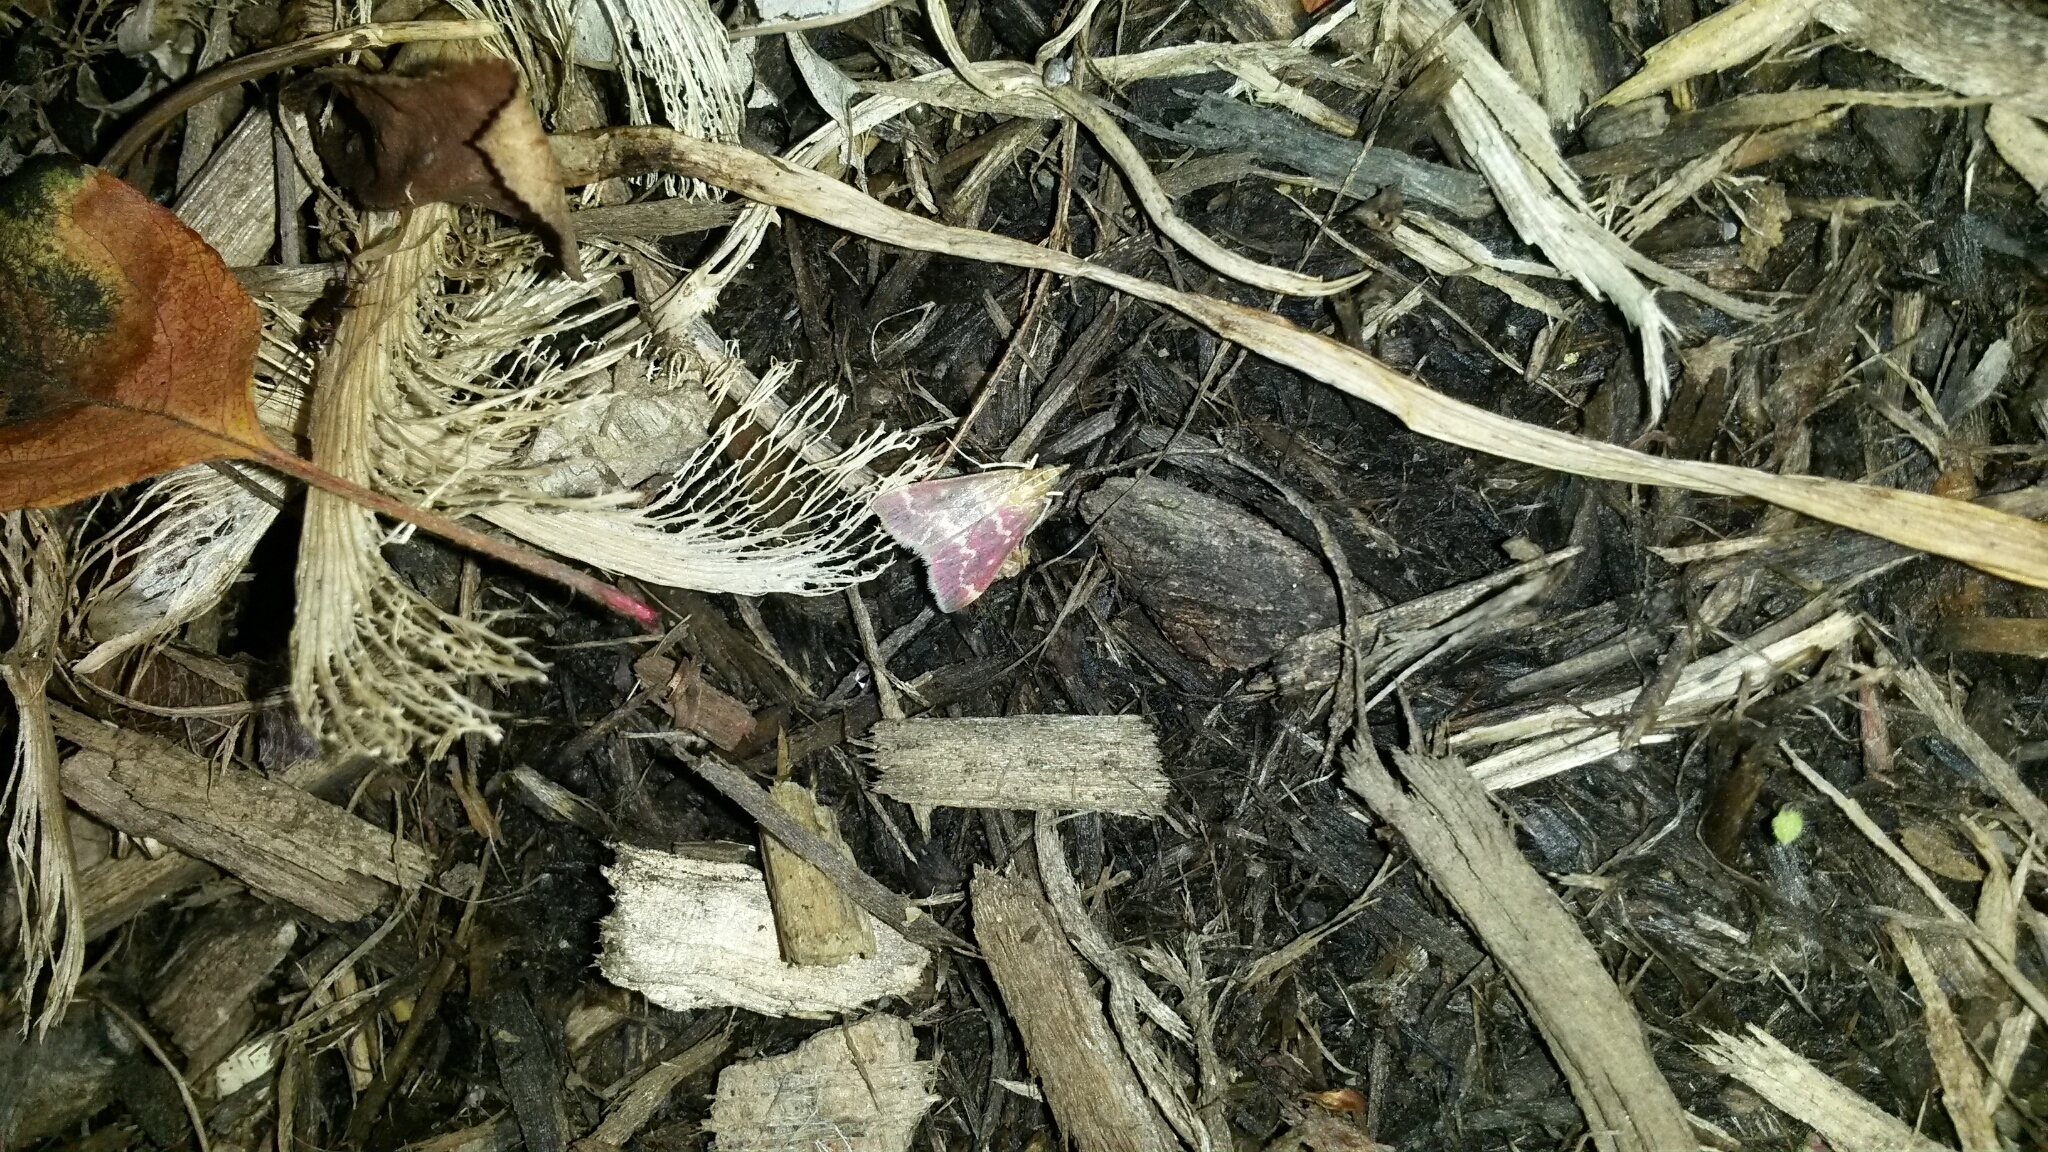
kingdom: Animalia
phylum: Arthropoda
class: Insecta
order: Lepidoptera
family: Crambidae
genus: Pyrausta
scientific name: Pyrausta signatalis
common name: Raspberry pyrausta moth
